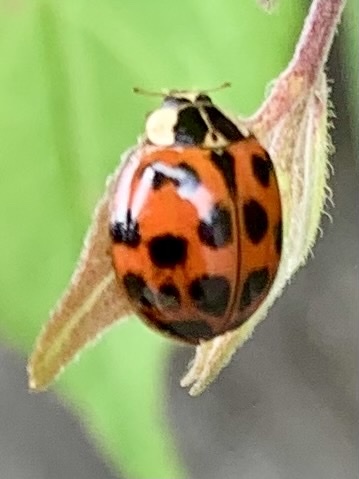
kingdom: Animalia
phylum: Arthropoda
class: Insecta
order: Coleoptera
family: Coccinellidae
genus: Harmonia
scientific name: Harmonia axyridis
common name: Harlequin ladybird
